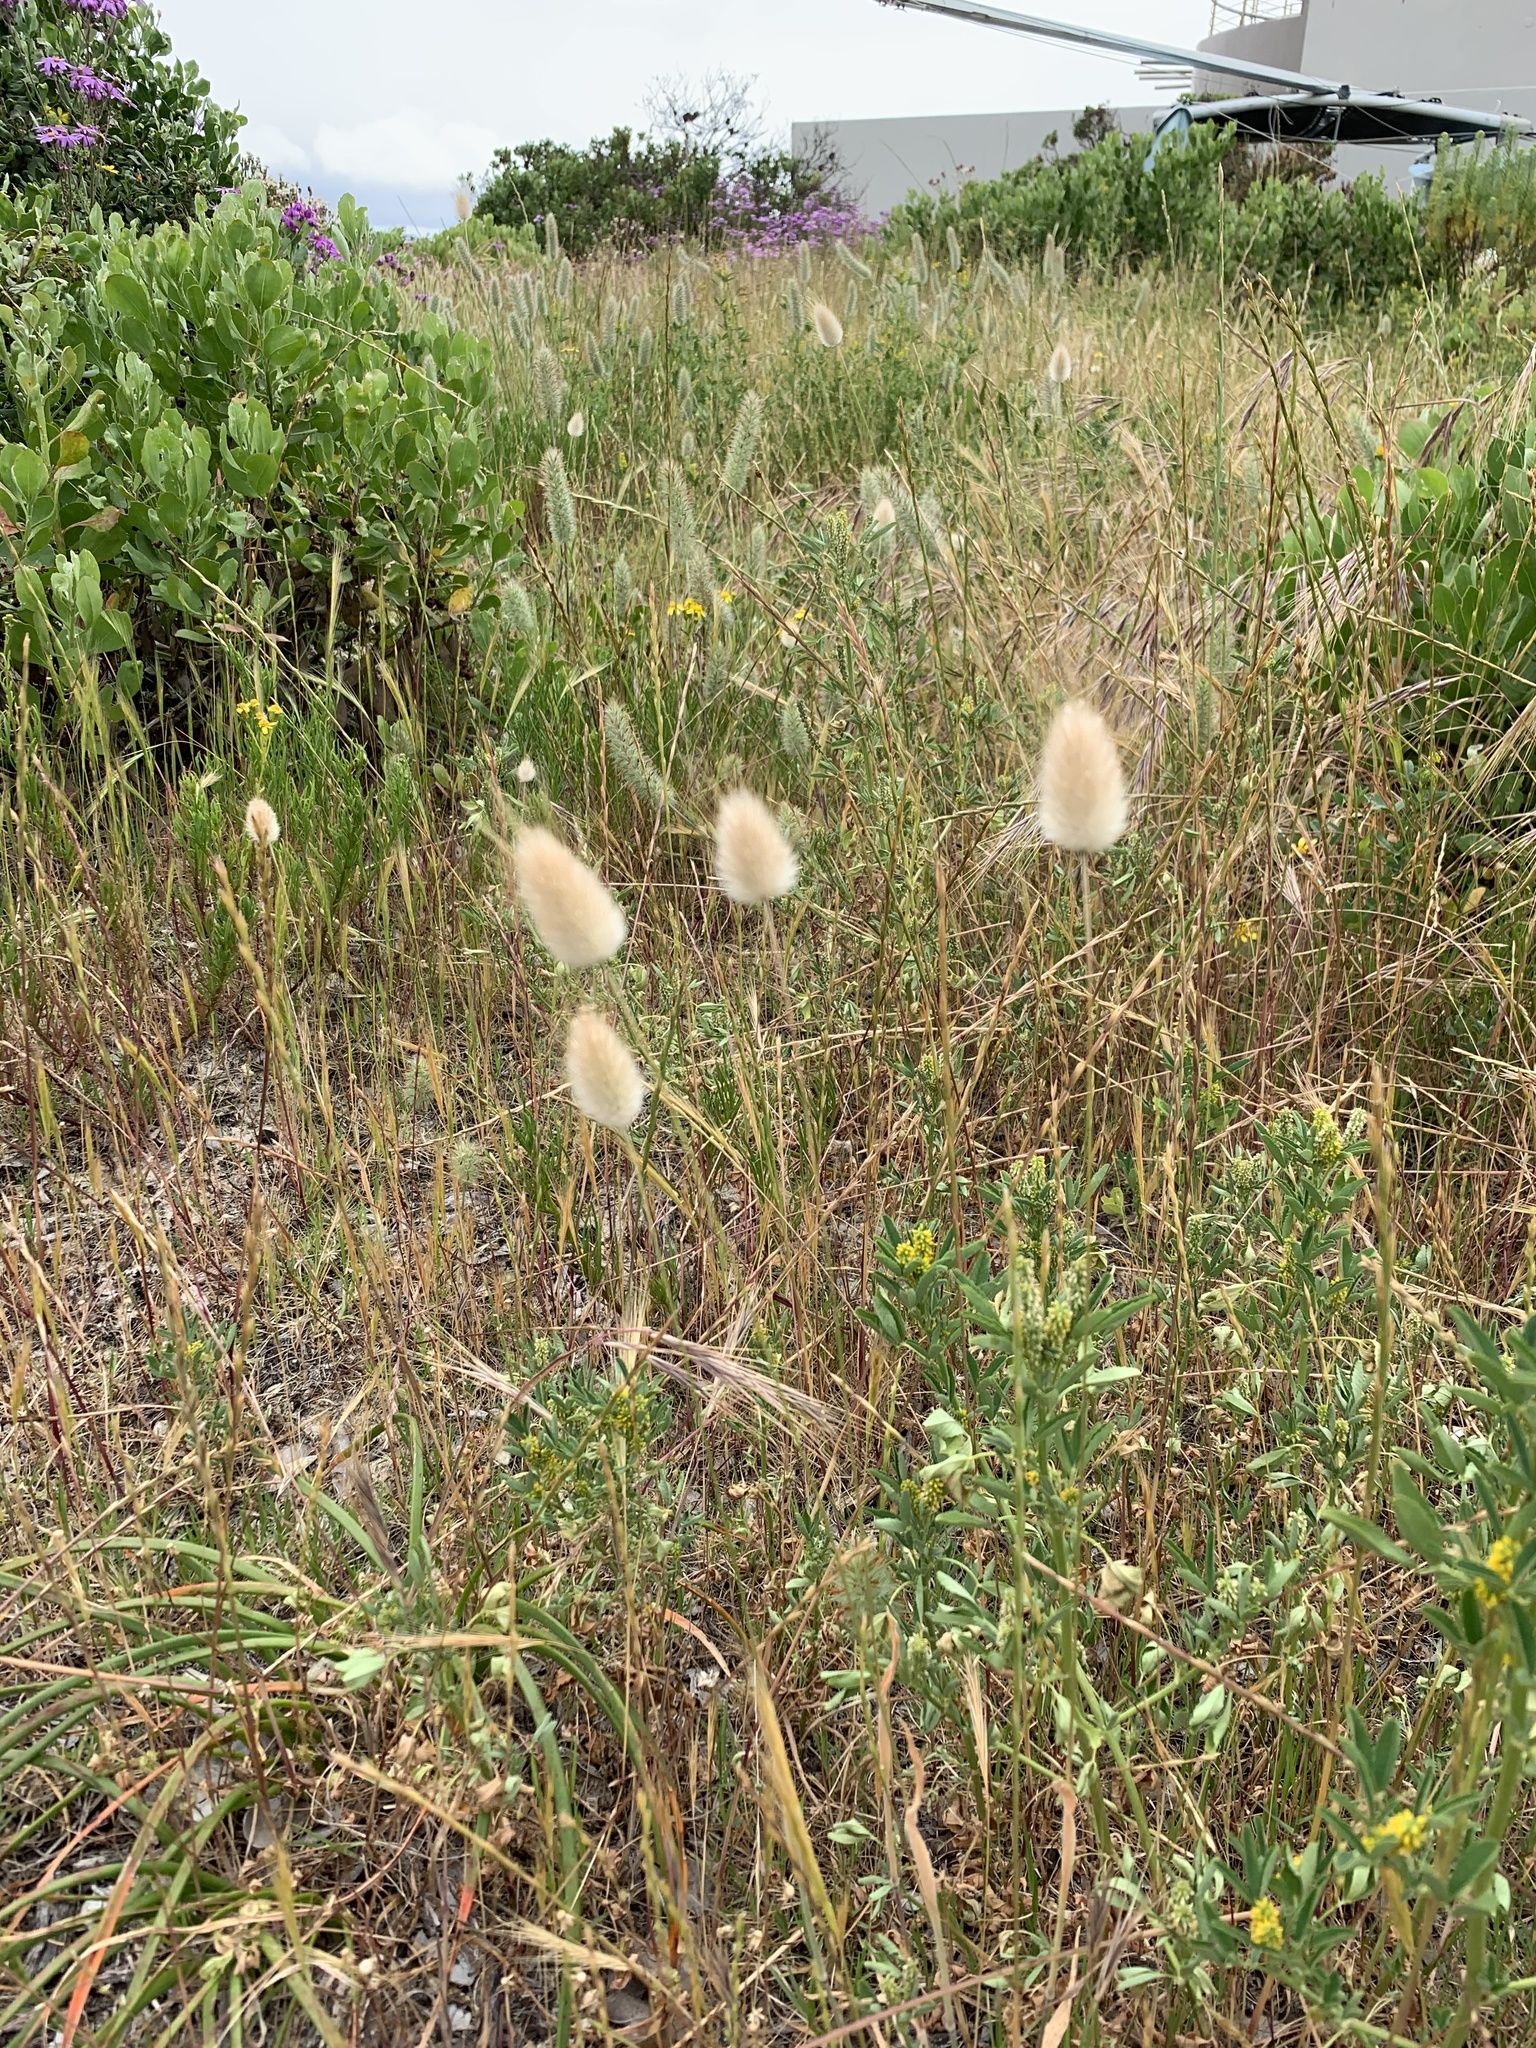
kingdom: Plantae
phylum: Tracheophyta
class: Liliopsida
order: Poales
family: Poaceae
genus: Lagurus
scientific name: Lagurus ovatus
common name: Hare's-tail
